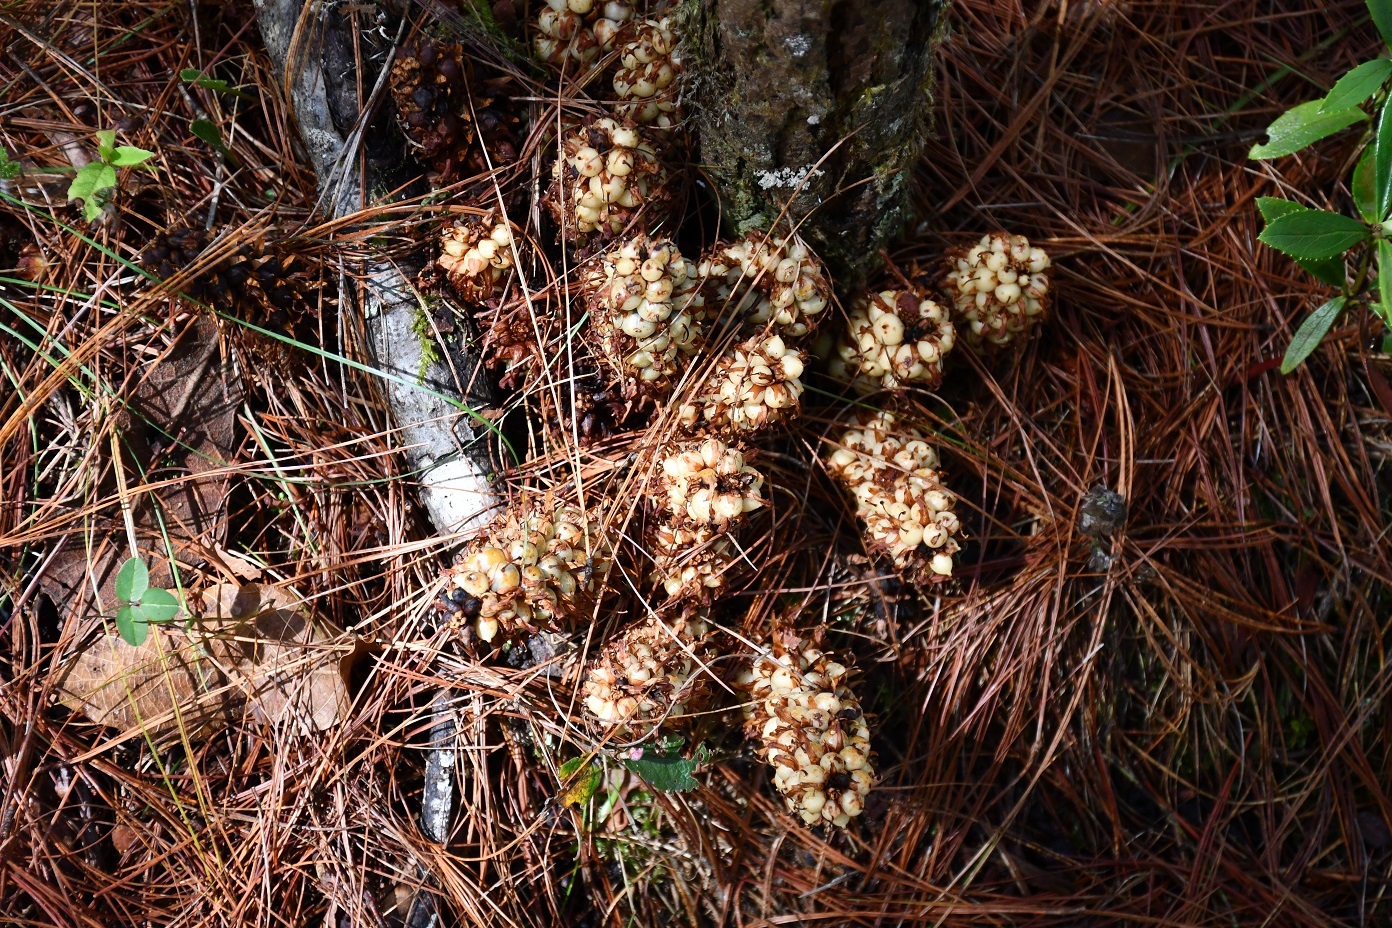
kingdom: Plantae
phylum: Tracheophyta
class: Magnoliopsida
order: Lamiales
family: Orobanchaceae
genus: Conopholis
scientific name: Conopholis alpina
